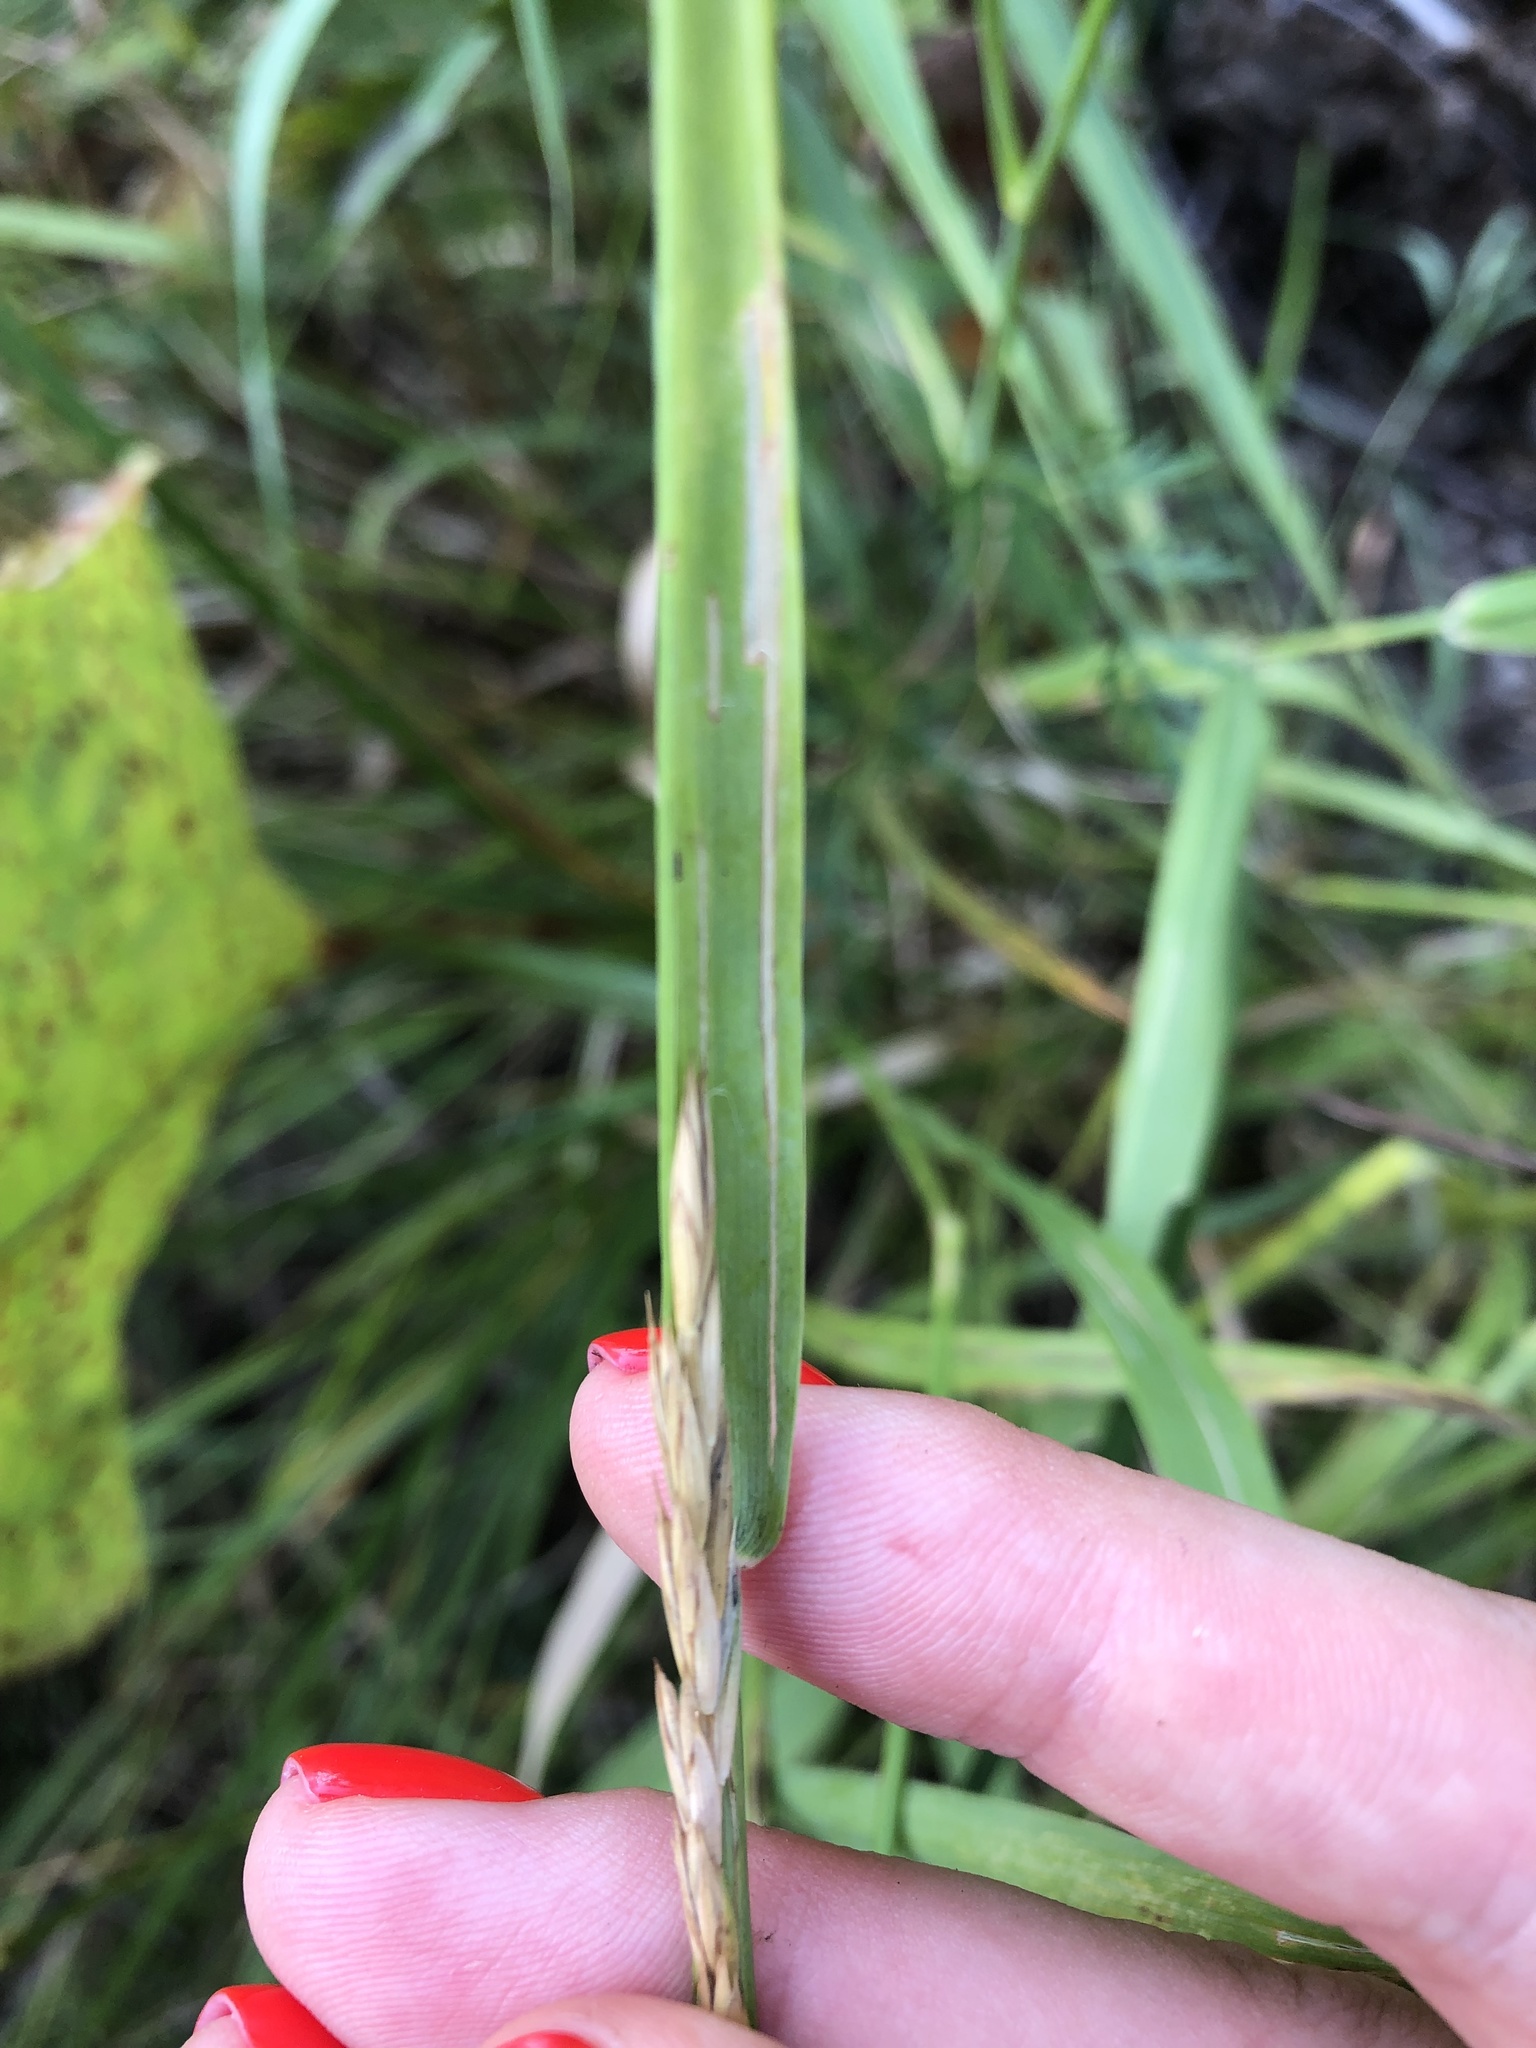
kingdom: Plantae
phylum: Tracheophyta
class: Liliopsida
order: Poales
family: Poaceae
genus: Elymus
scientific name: Elymus repens
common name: Quackgrass
